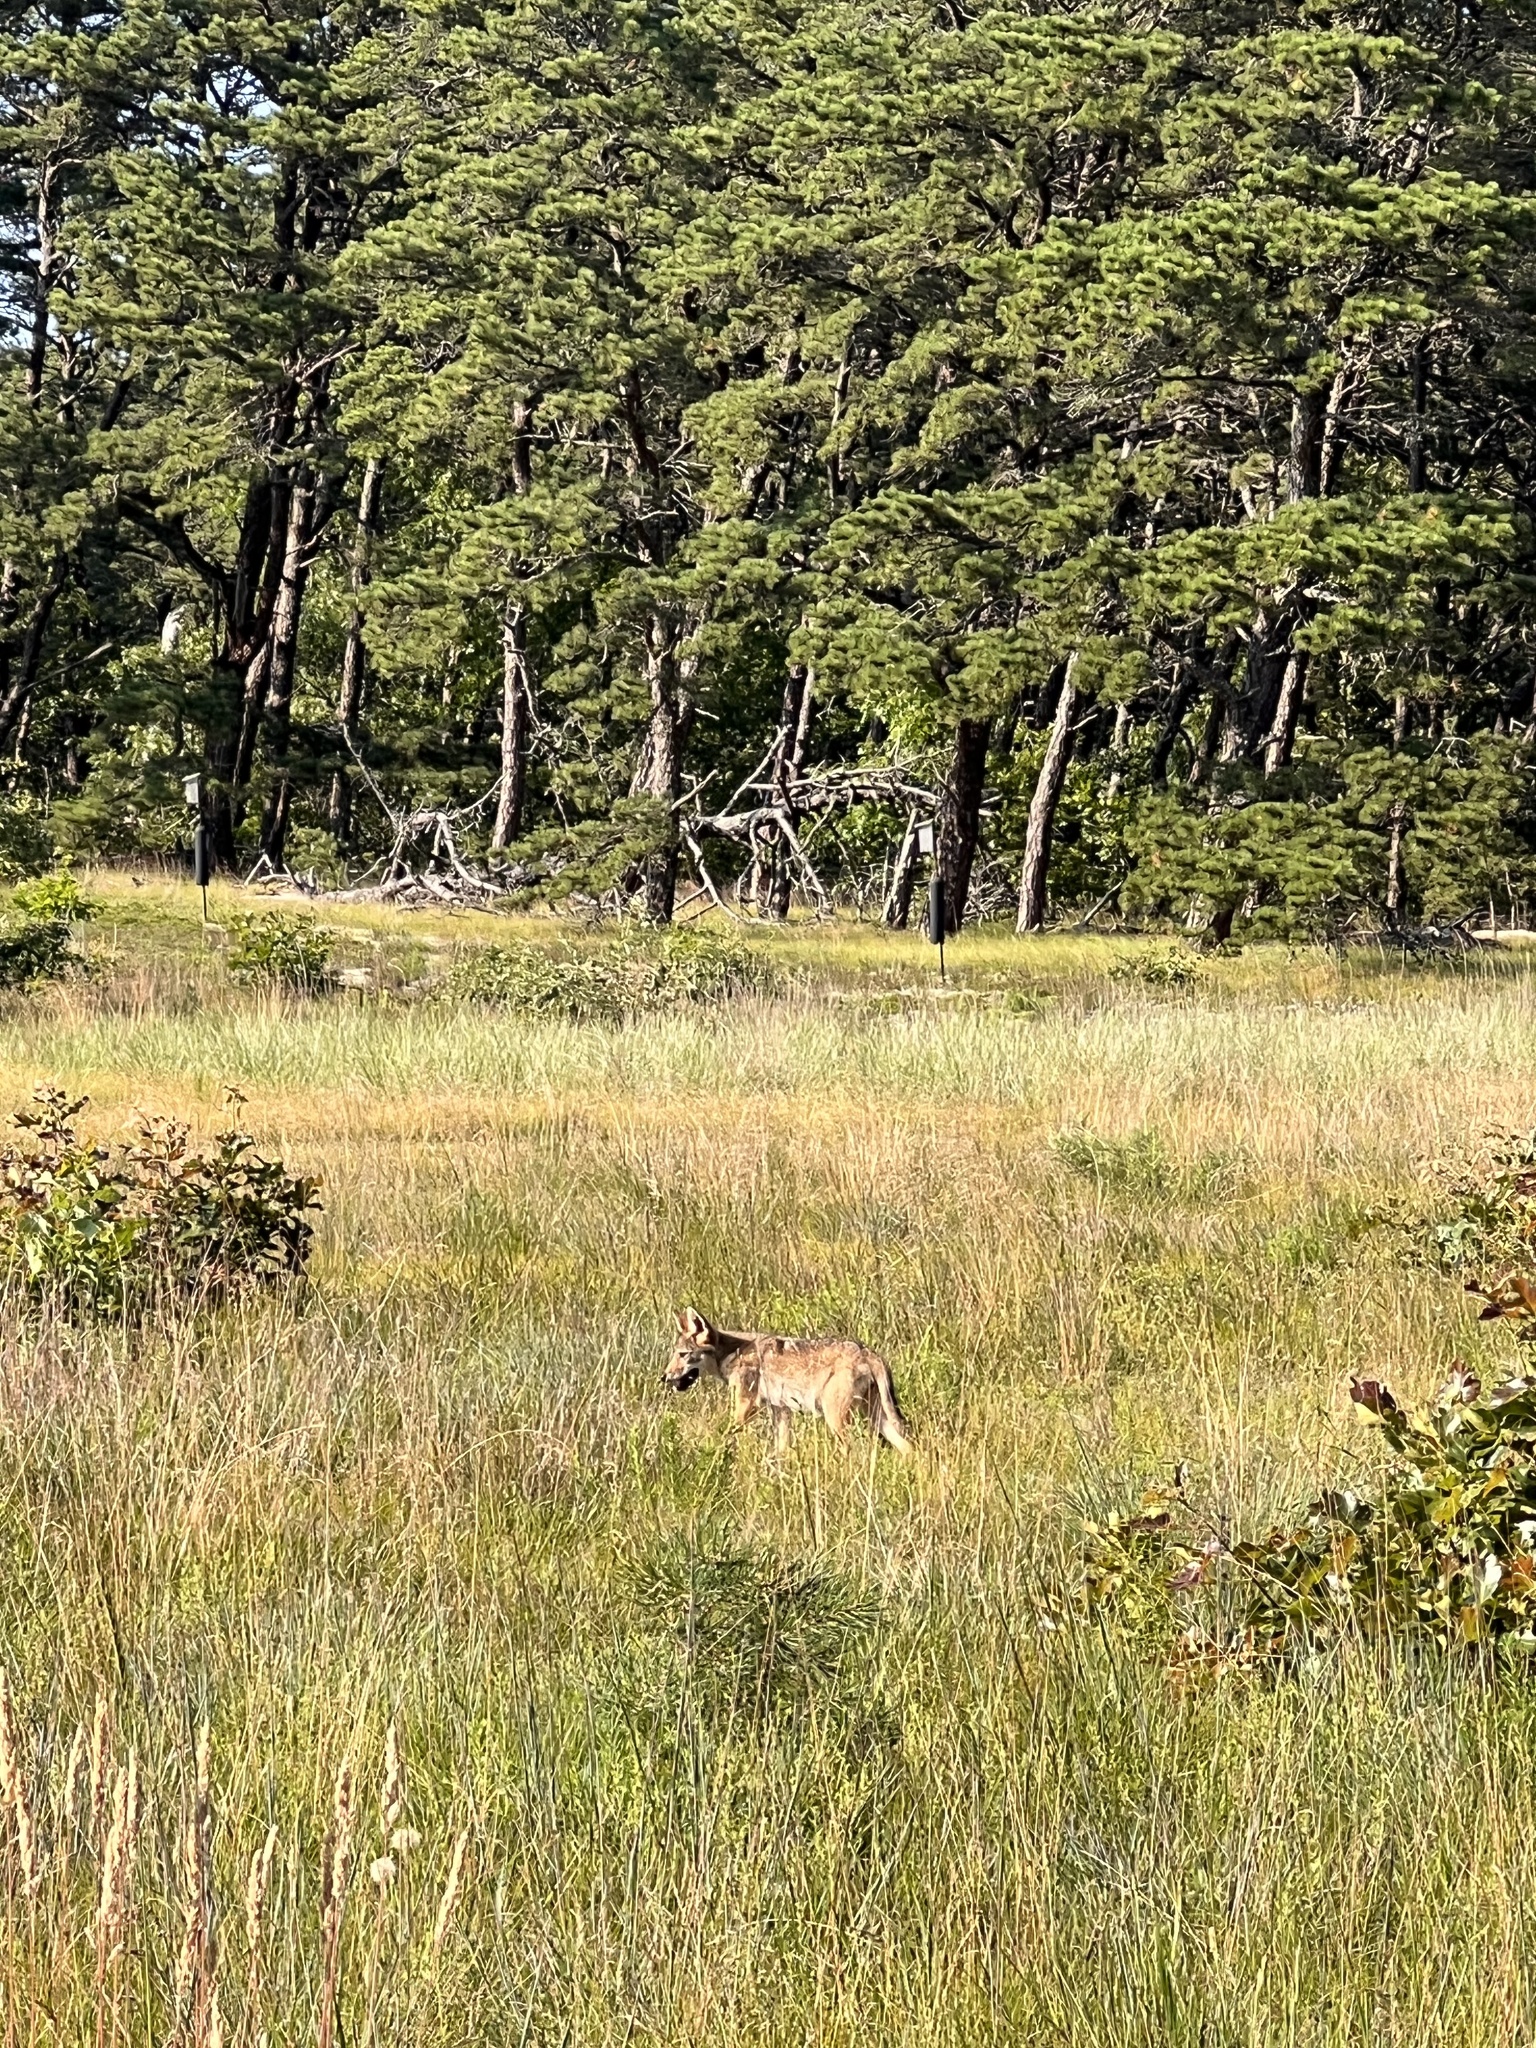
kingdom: Animalia
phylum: Chordata
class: Mammalia
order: Carnivora
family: Canidae
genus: Canis
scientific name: Canis latrans
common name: Coyote
